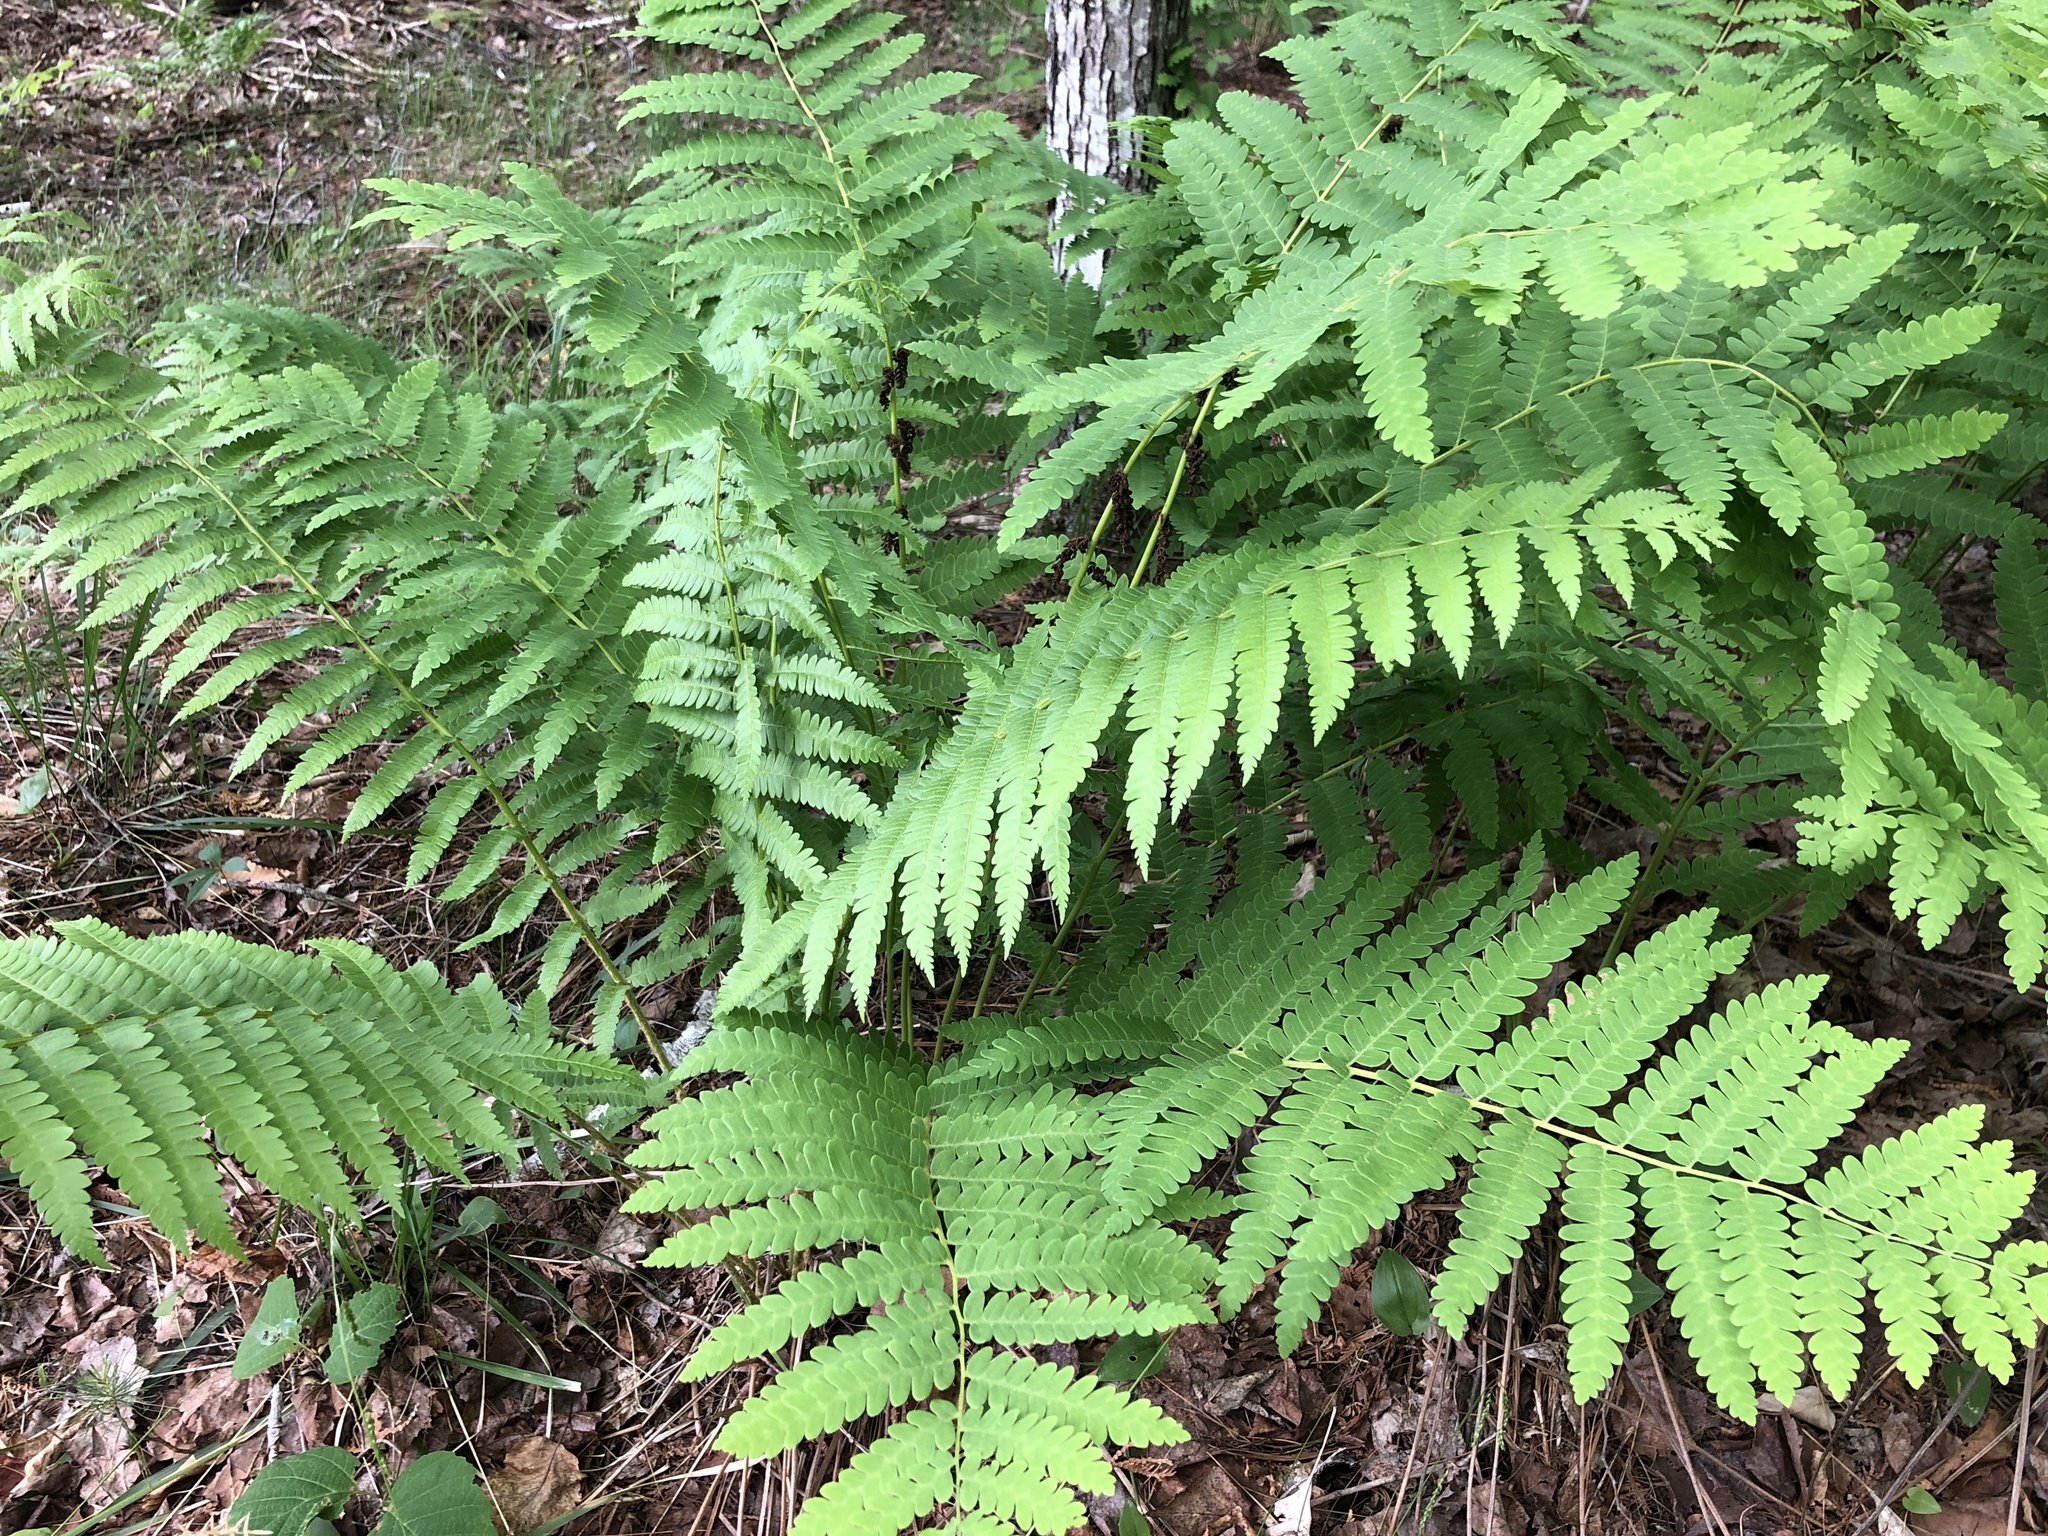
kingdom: Plantae
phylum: Tracheophyta
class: Polypodiopsida
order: Osmundales
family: Osmundaceae
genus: Claytosmunda
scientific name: Claytosmunda claytoniana
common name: Clayton's fern
